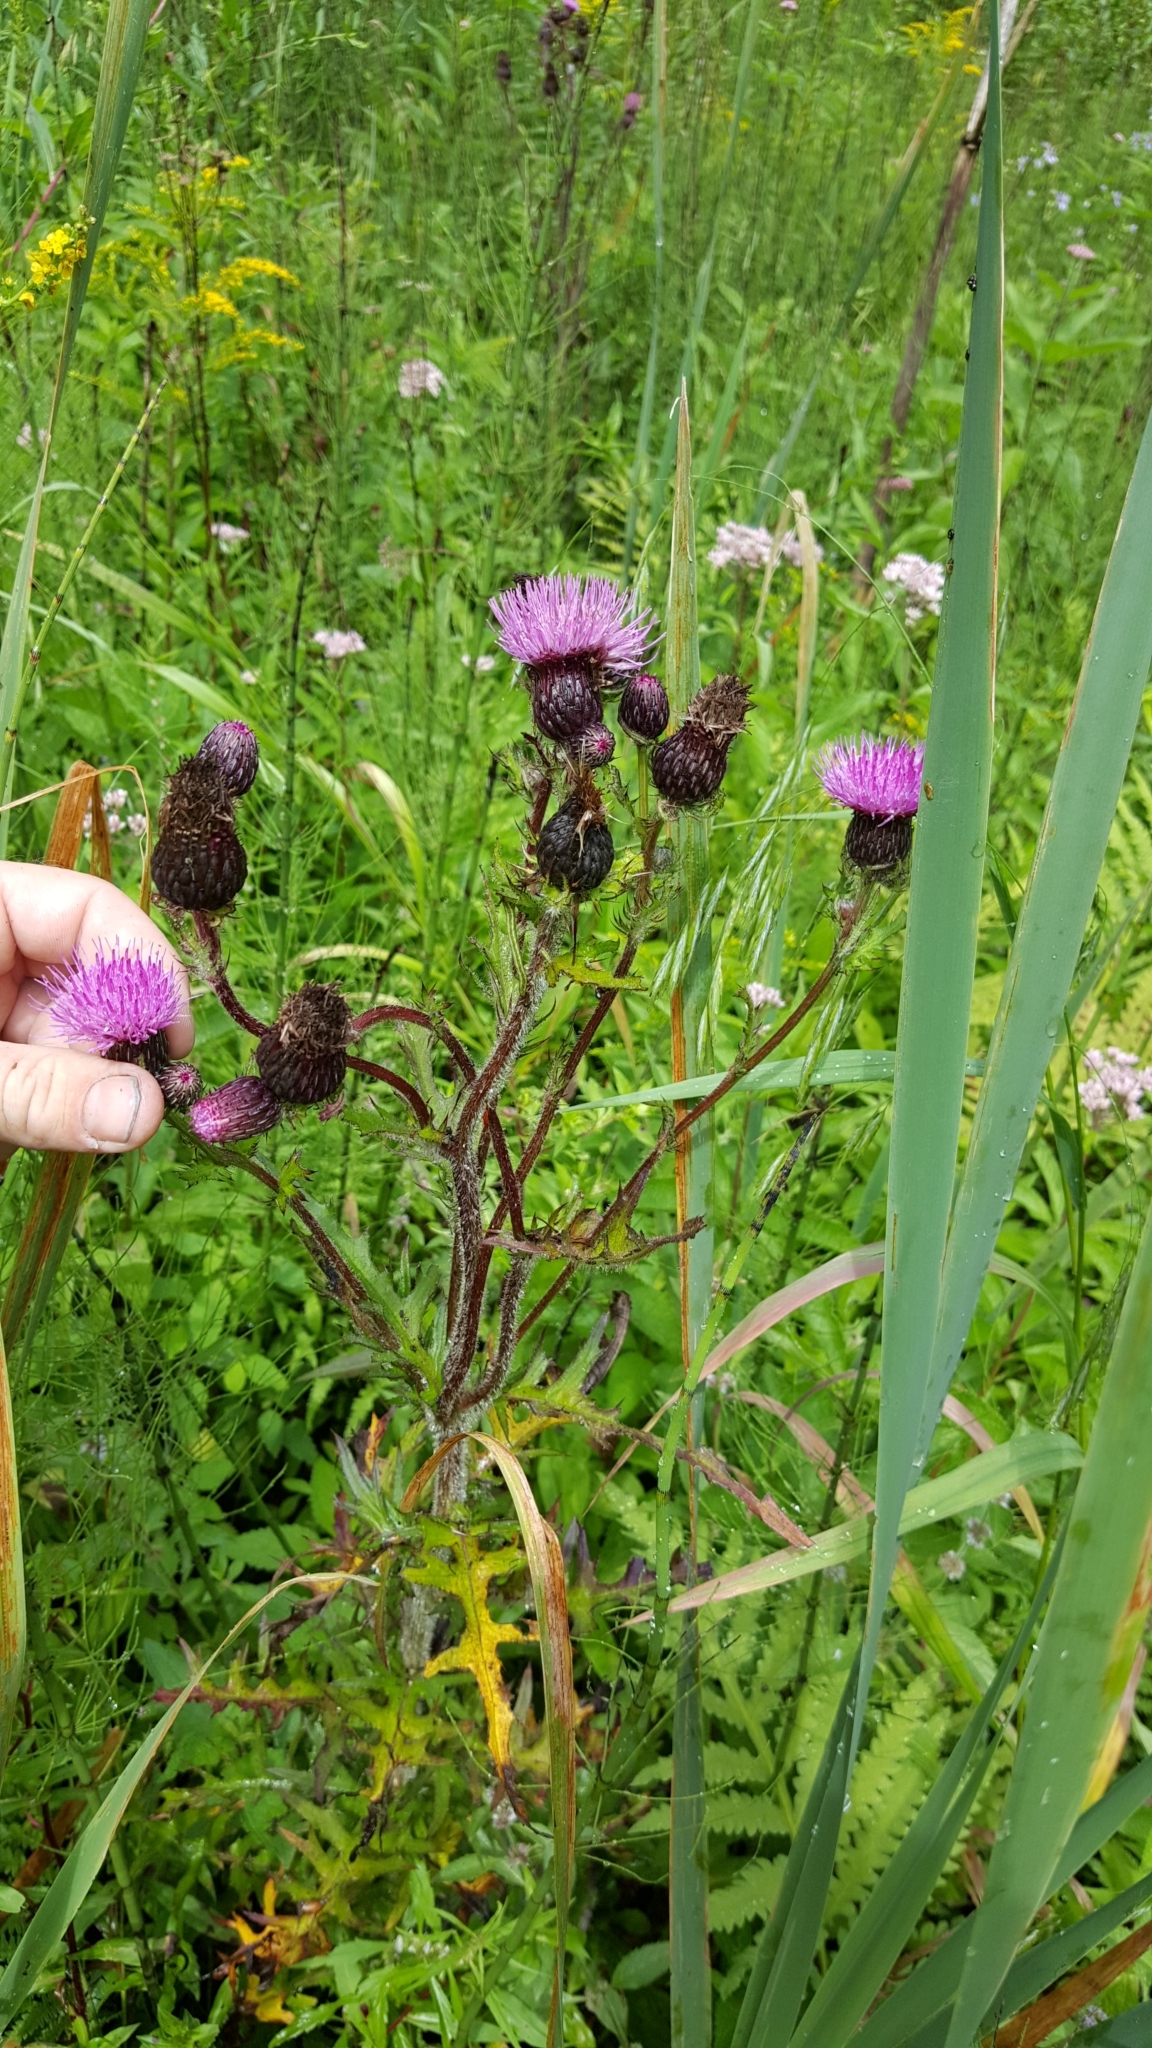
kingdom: Plantae
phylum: Tracheophyta
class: Magnoliopsida
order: Asterales
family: Asteraceae
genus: Cirsium
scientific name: Cirsium muticum
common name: Dunce-nettle
